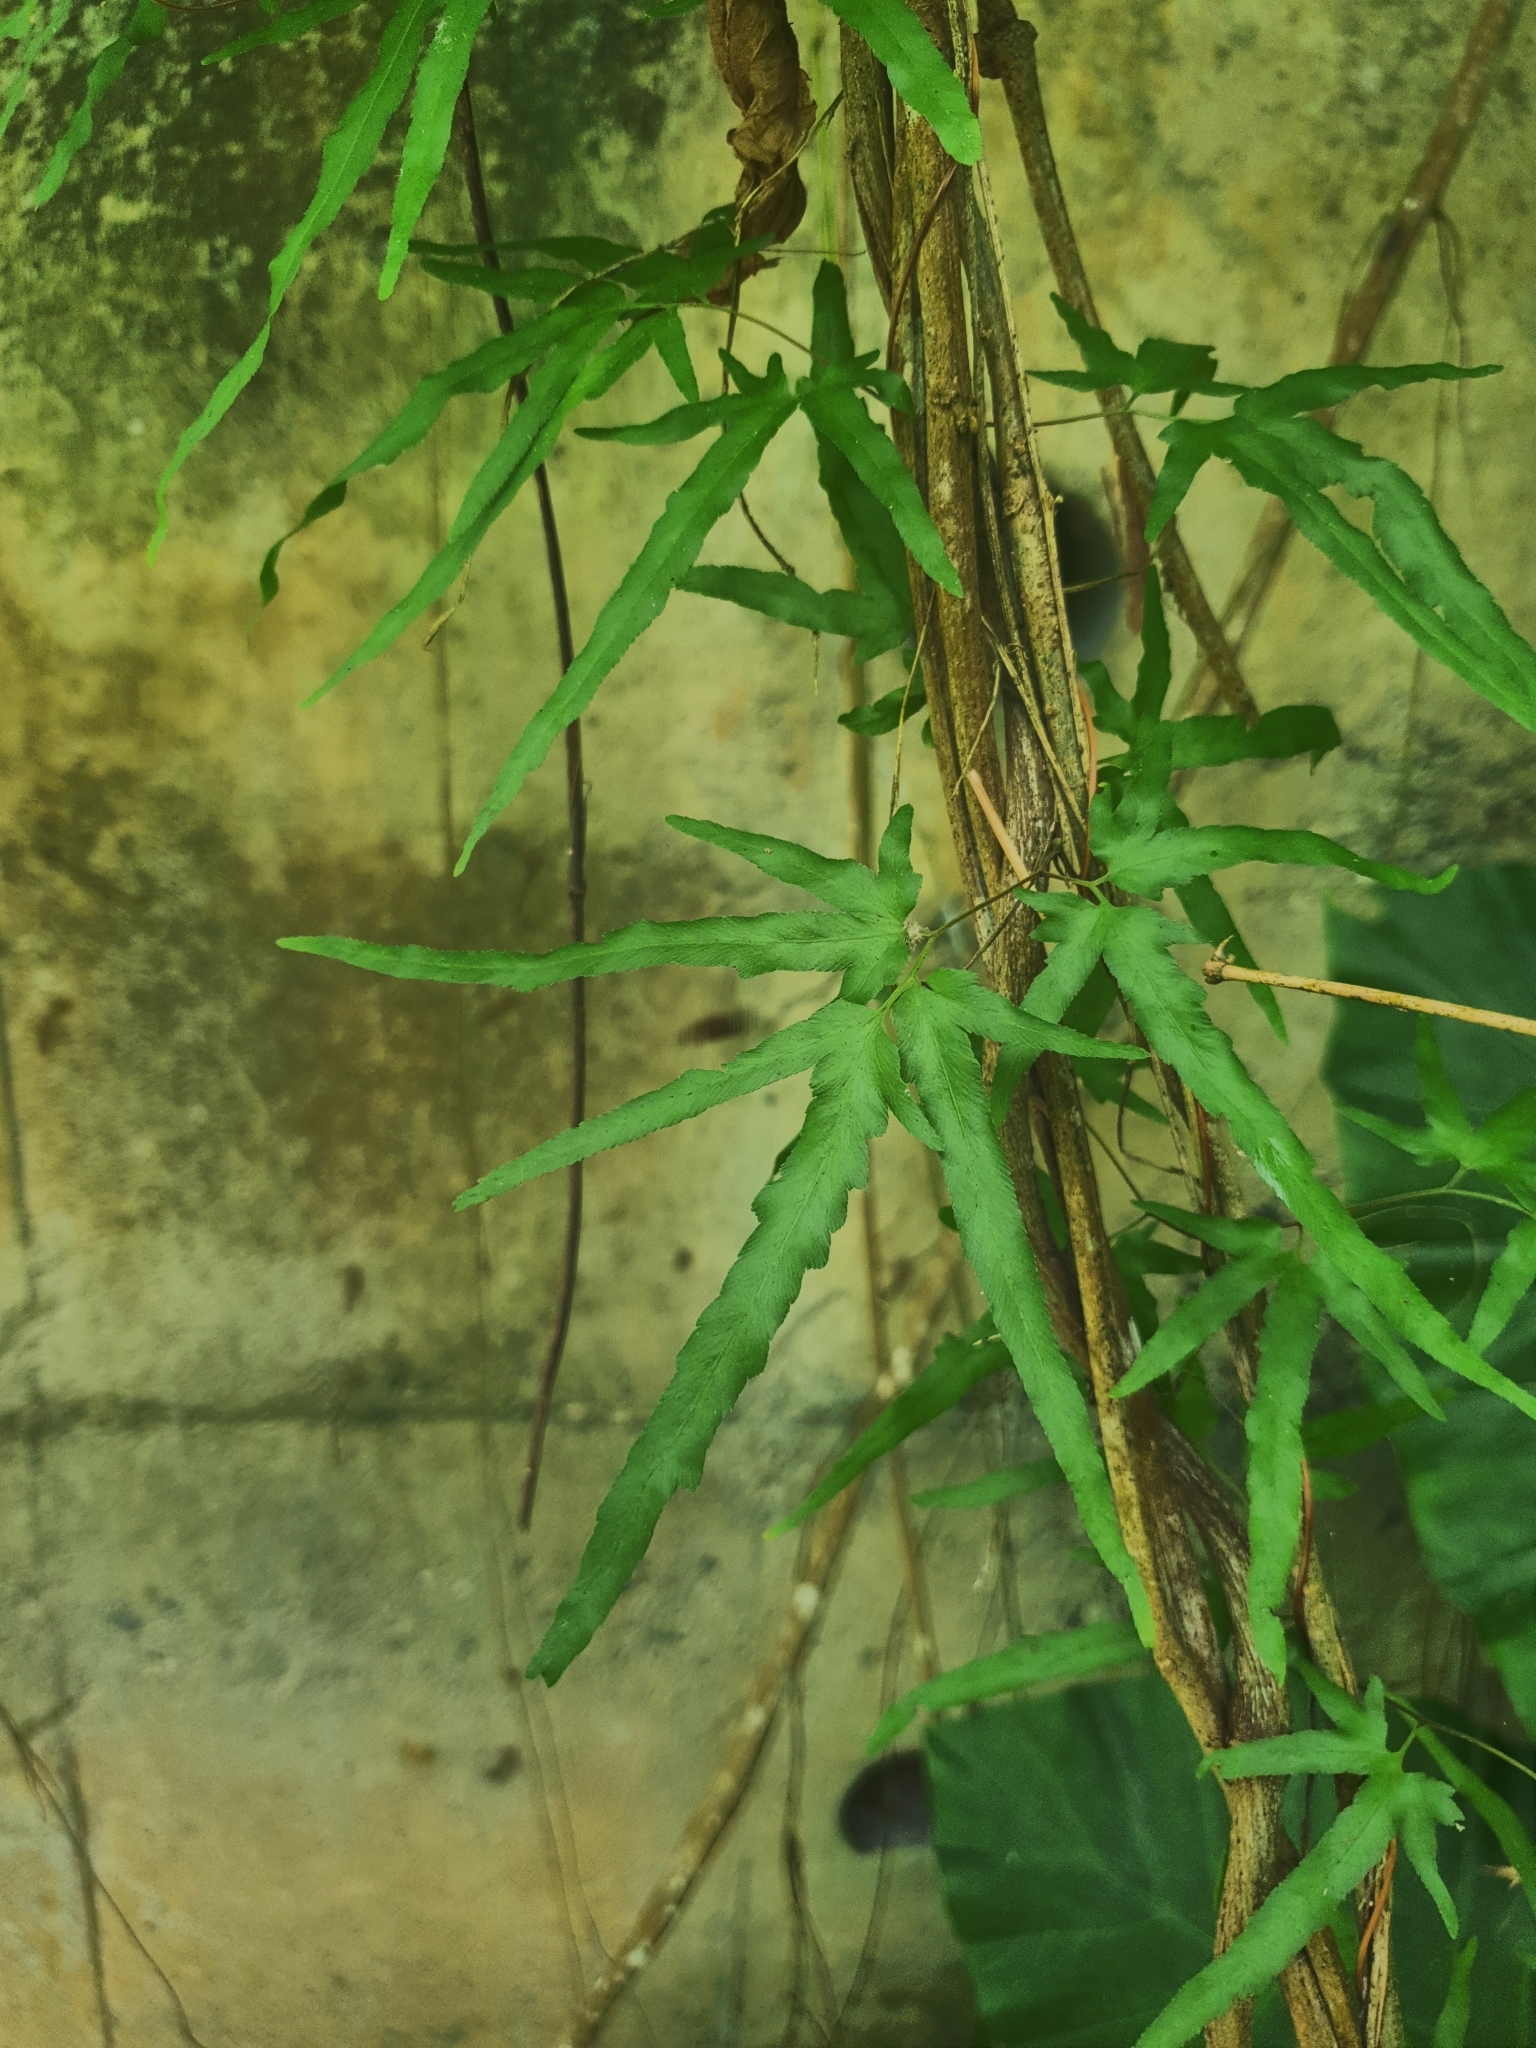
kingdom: Plantae
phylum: Tracheophyta
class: Polypodiopsida
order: Schizaeales
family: Lygodiaceae
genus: Lygodium
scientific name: Lygodium japonicum
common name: Japanese climbing fern
